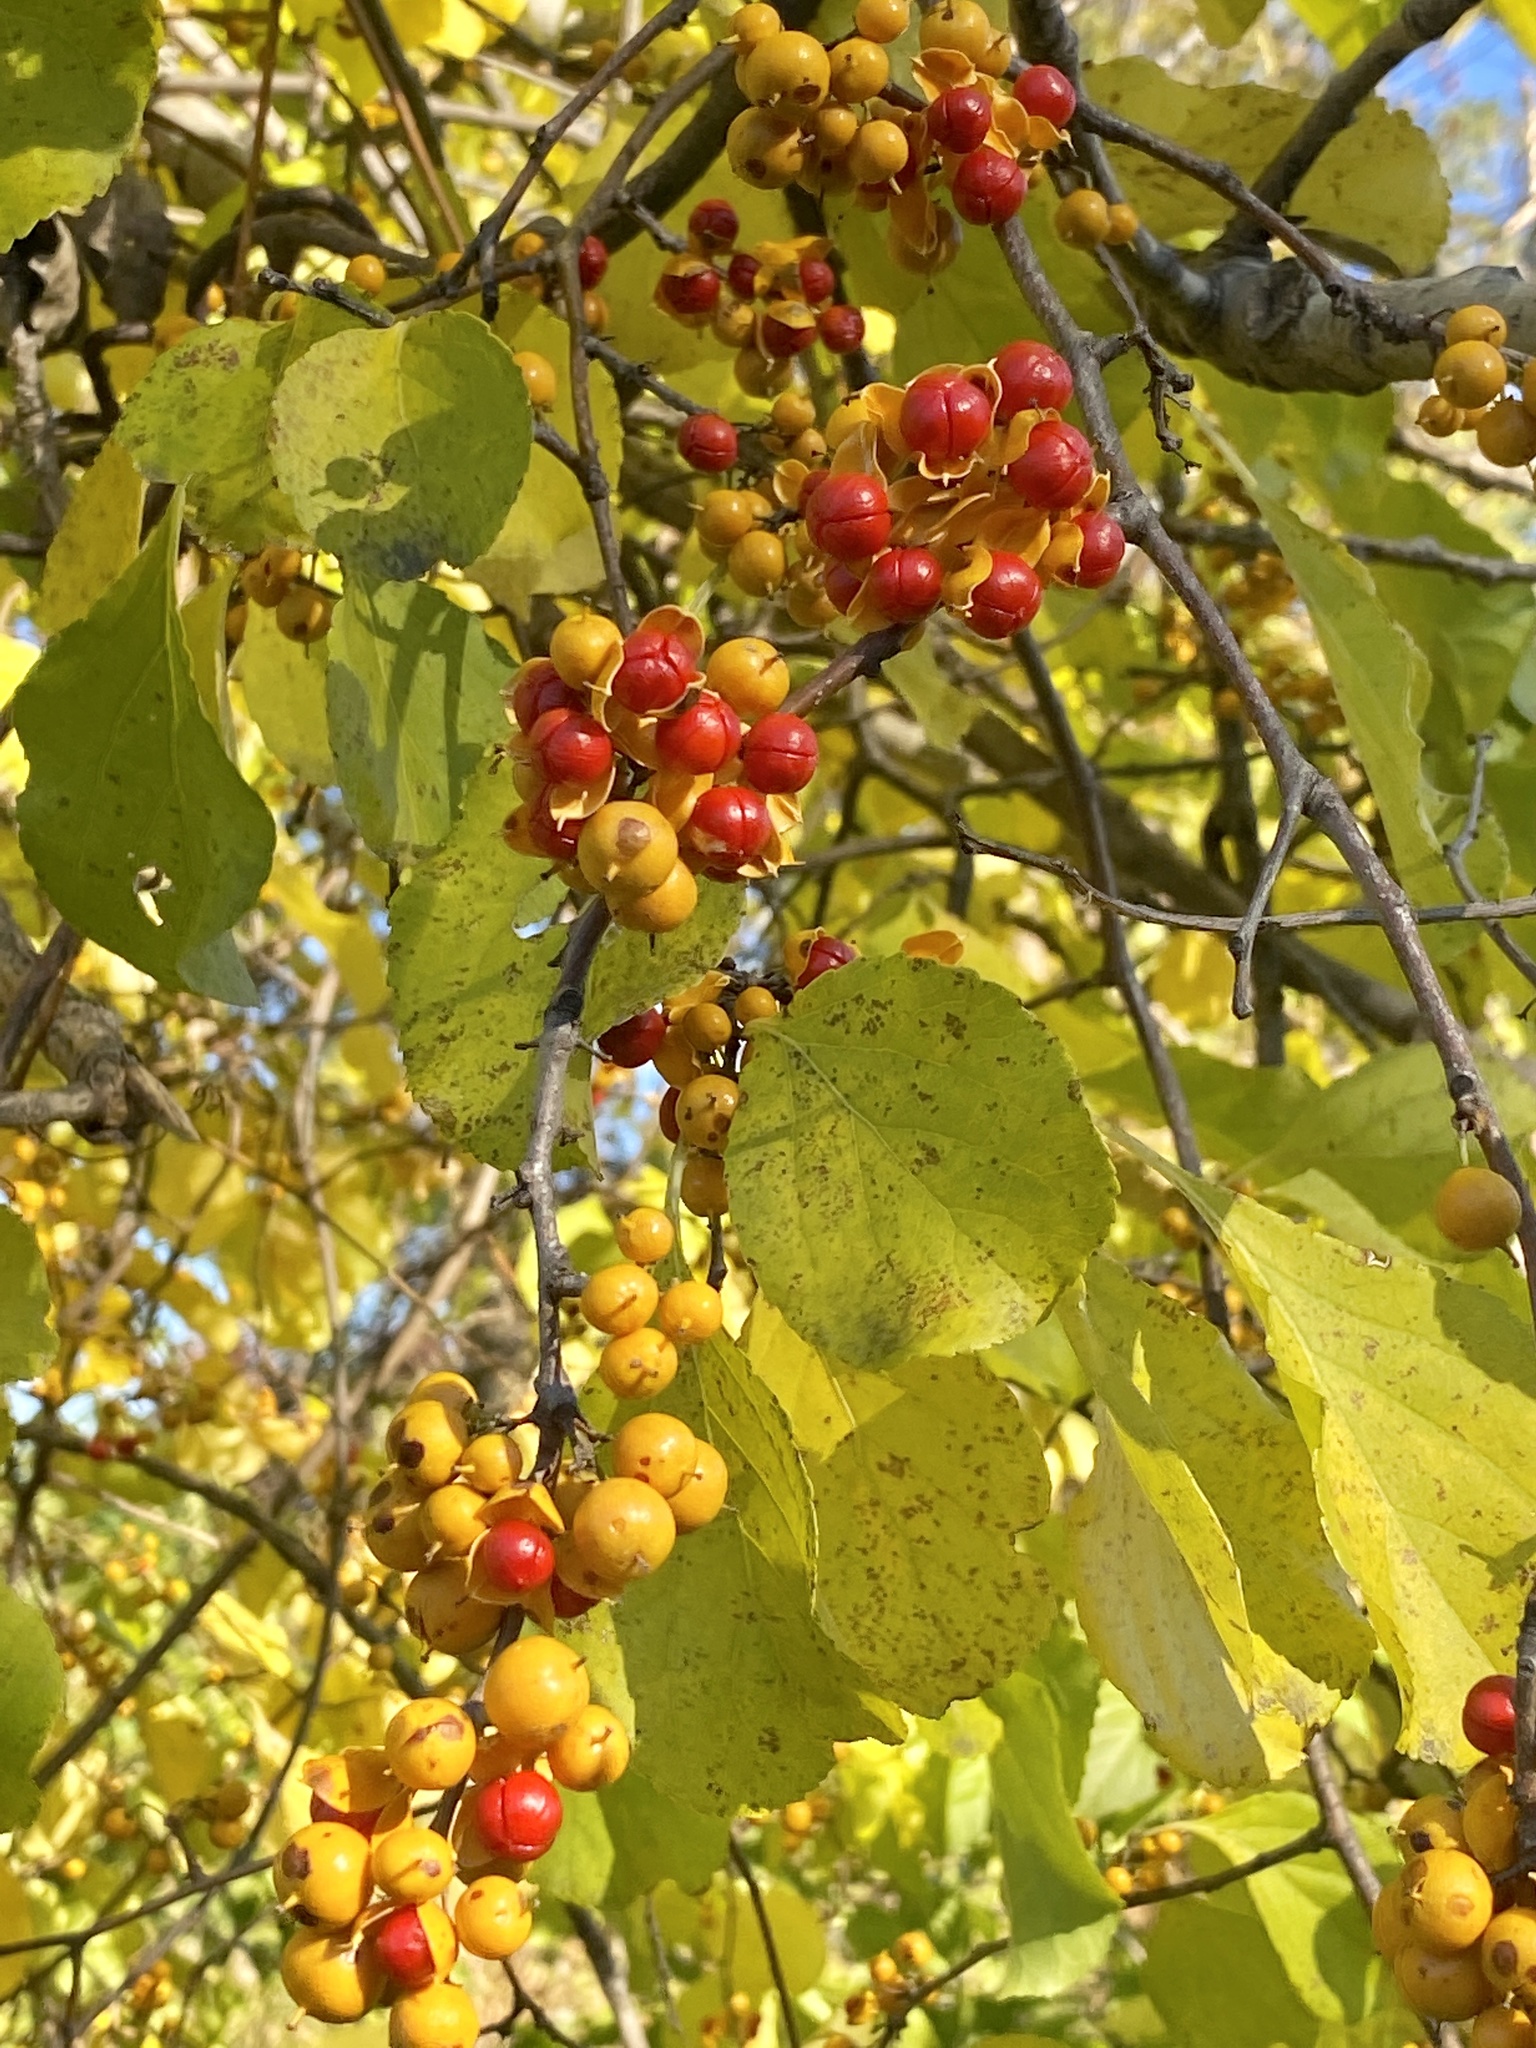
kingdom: Plantae
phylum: Tracheophyta
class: Magnoliopsida
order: Celastrales
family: Celastraceae
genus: Celastrus
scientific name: Celastrus orbiculatus
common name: Oriental bittersweet
